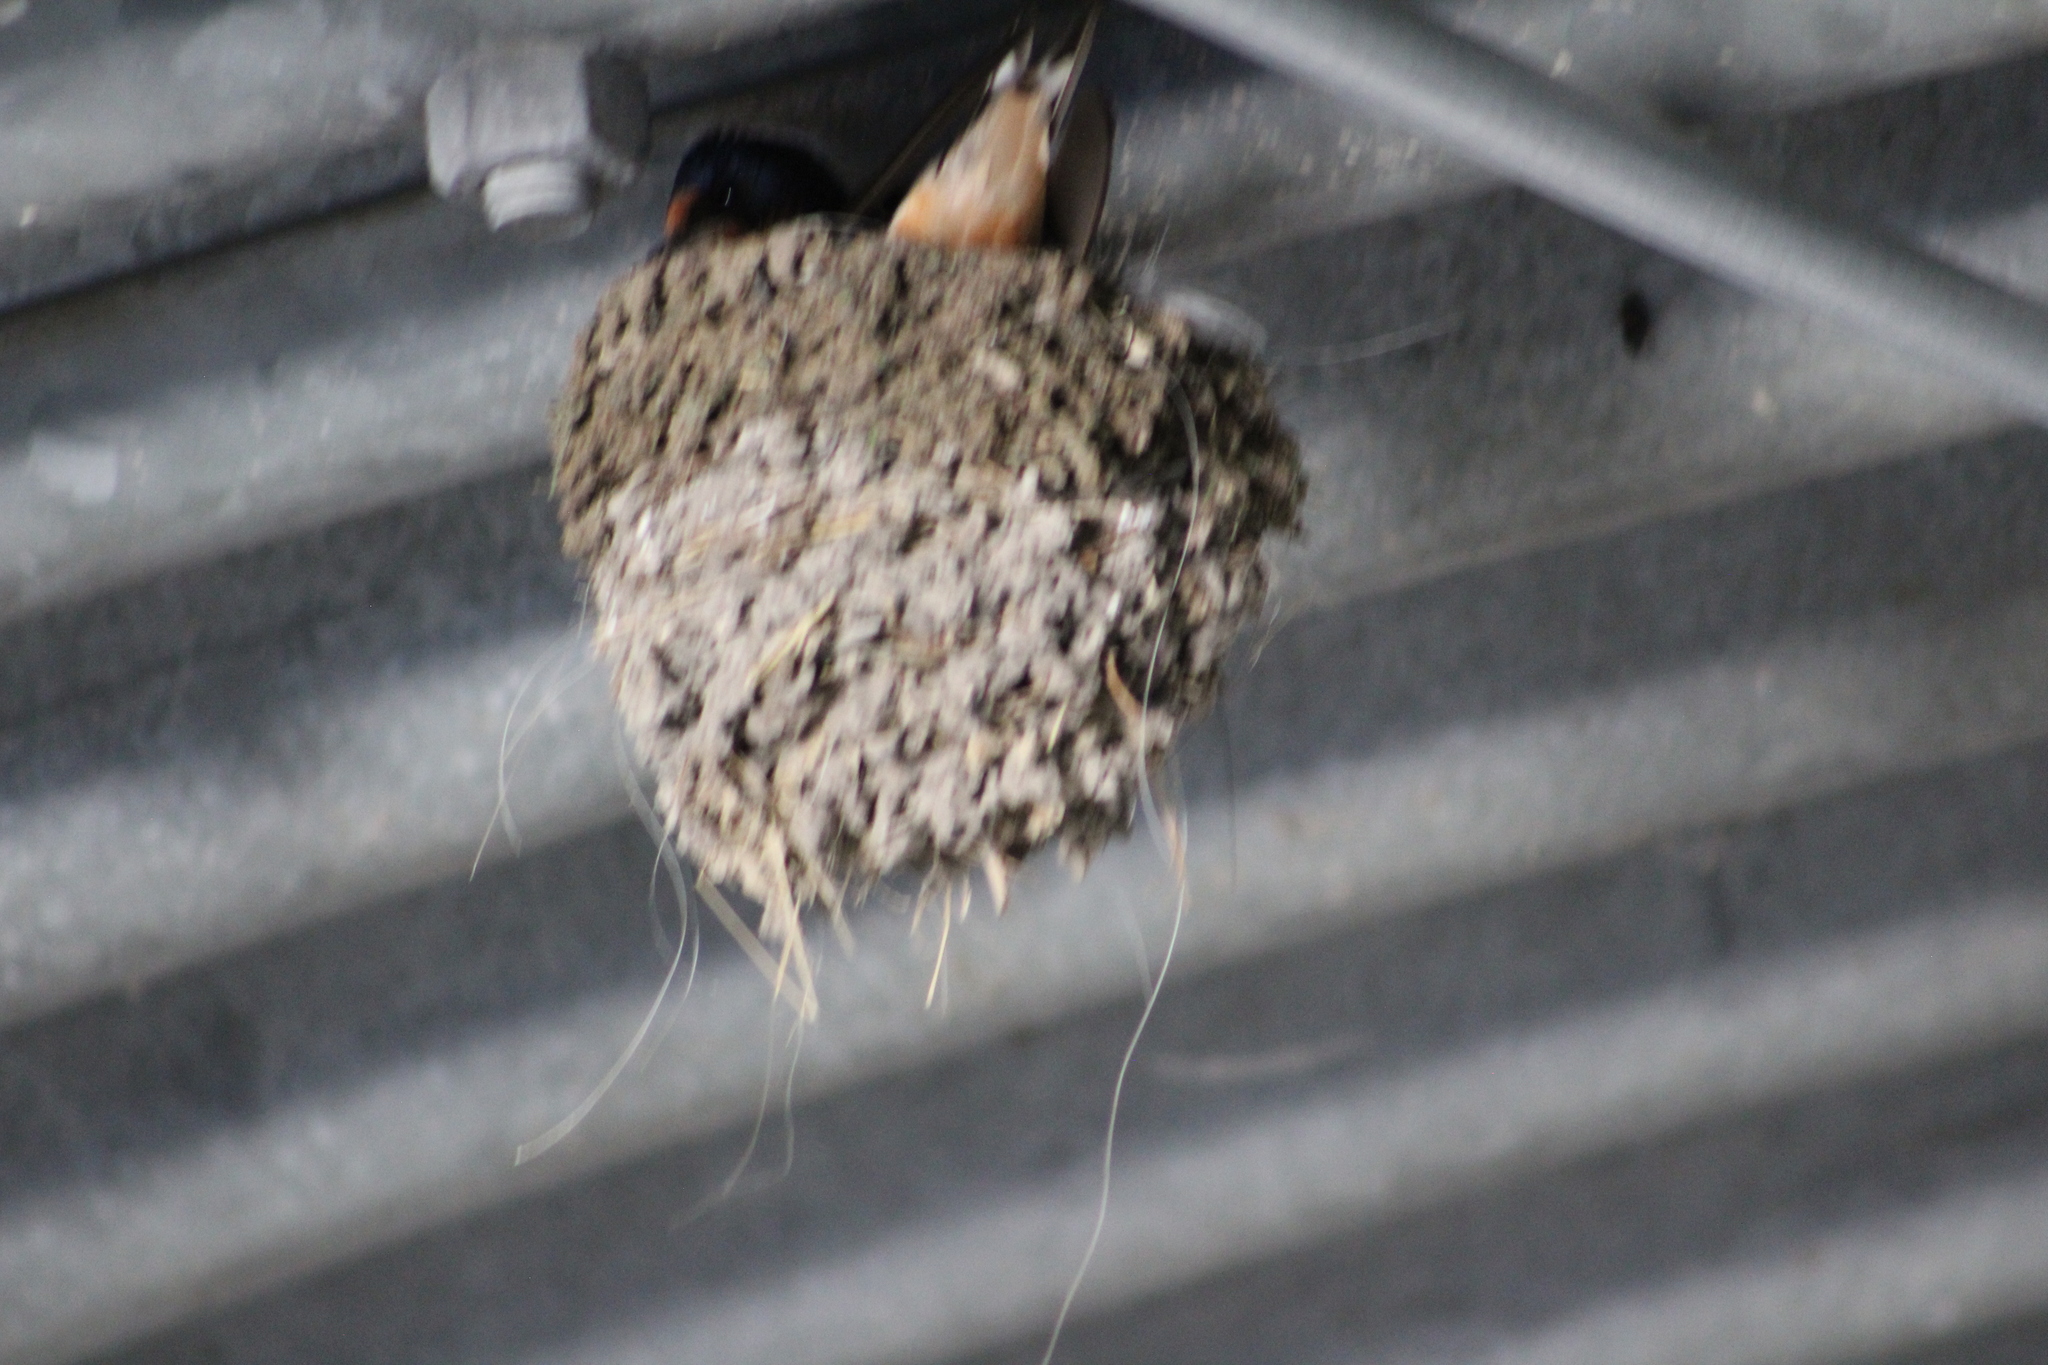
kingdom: Animalia
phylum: Chordata
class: Aves
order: Passeriformes
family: Hirundinidae
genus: Hirundo
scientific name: Hirundo rustica
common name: Barn swallow
